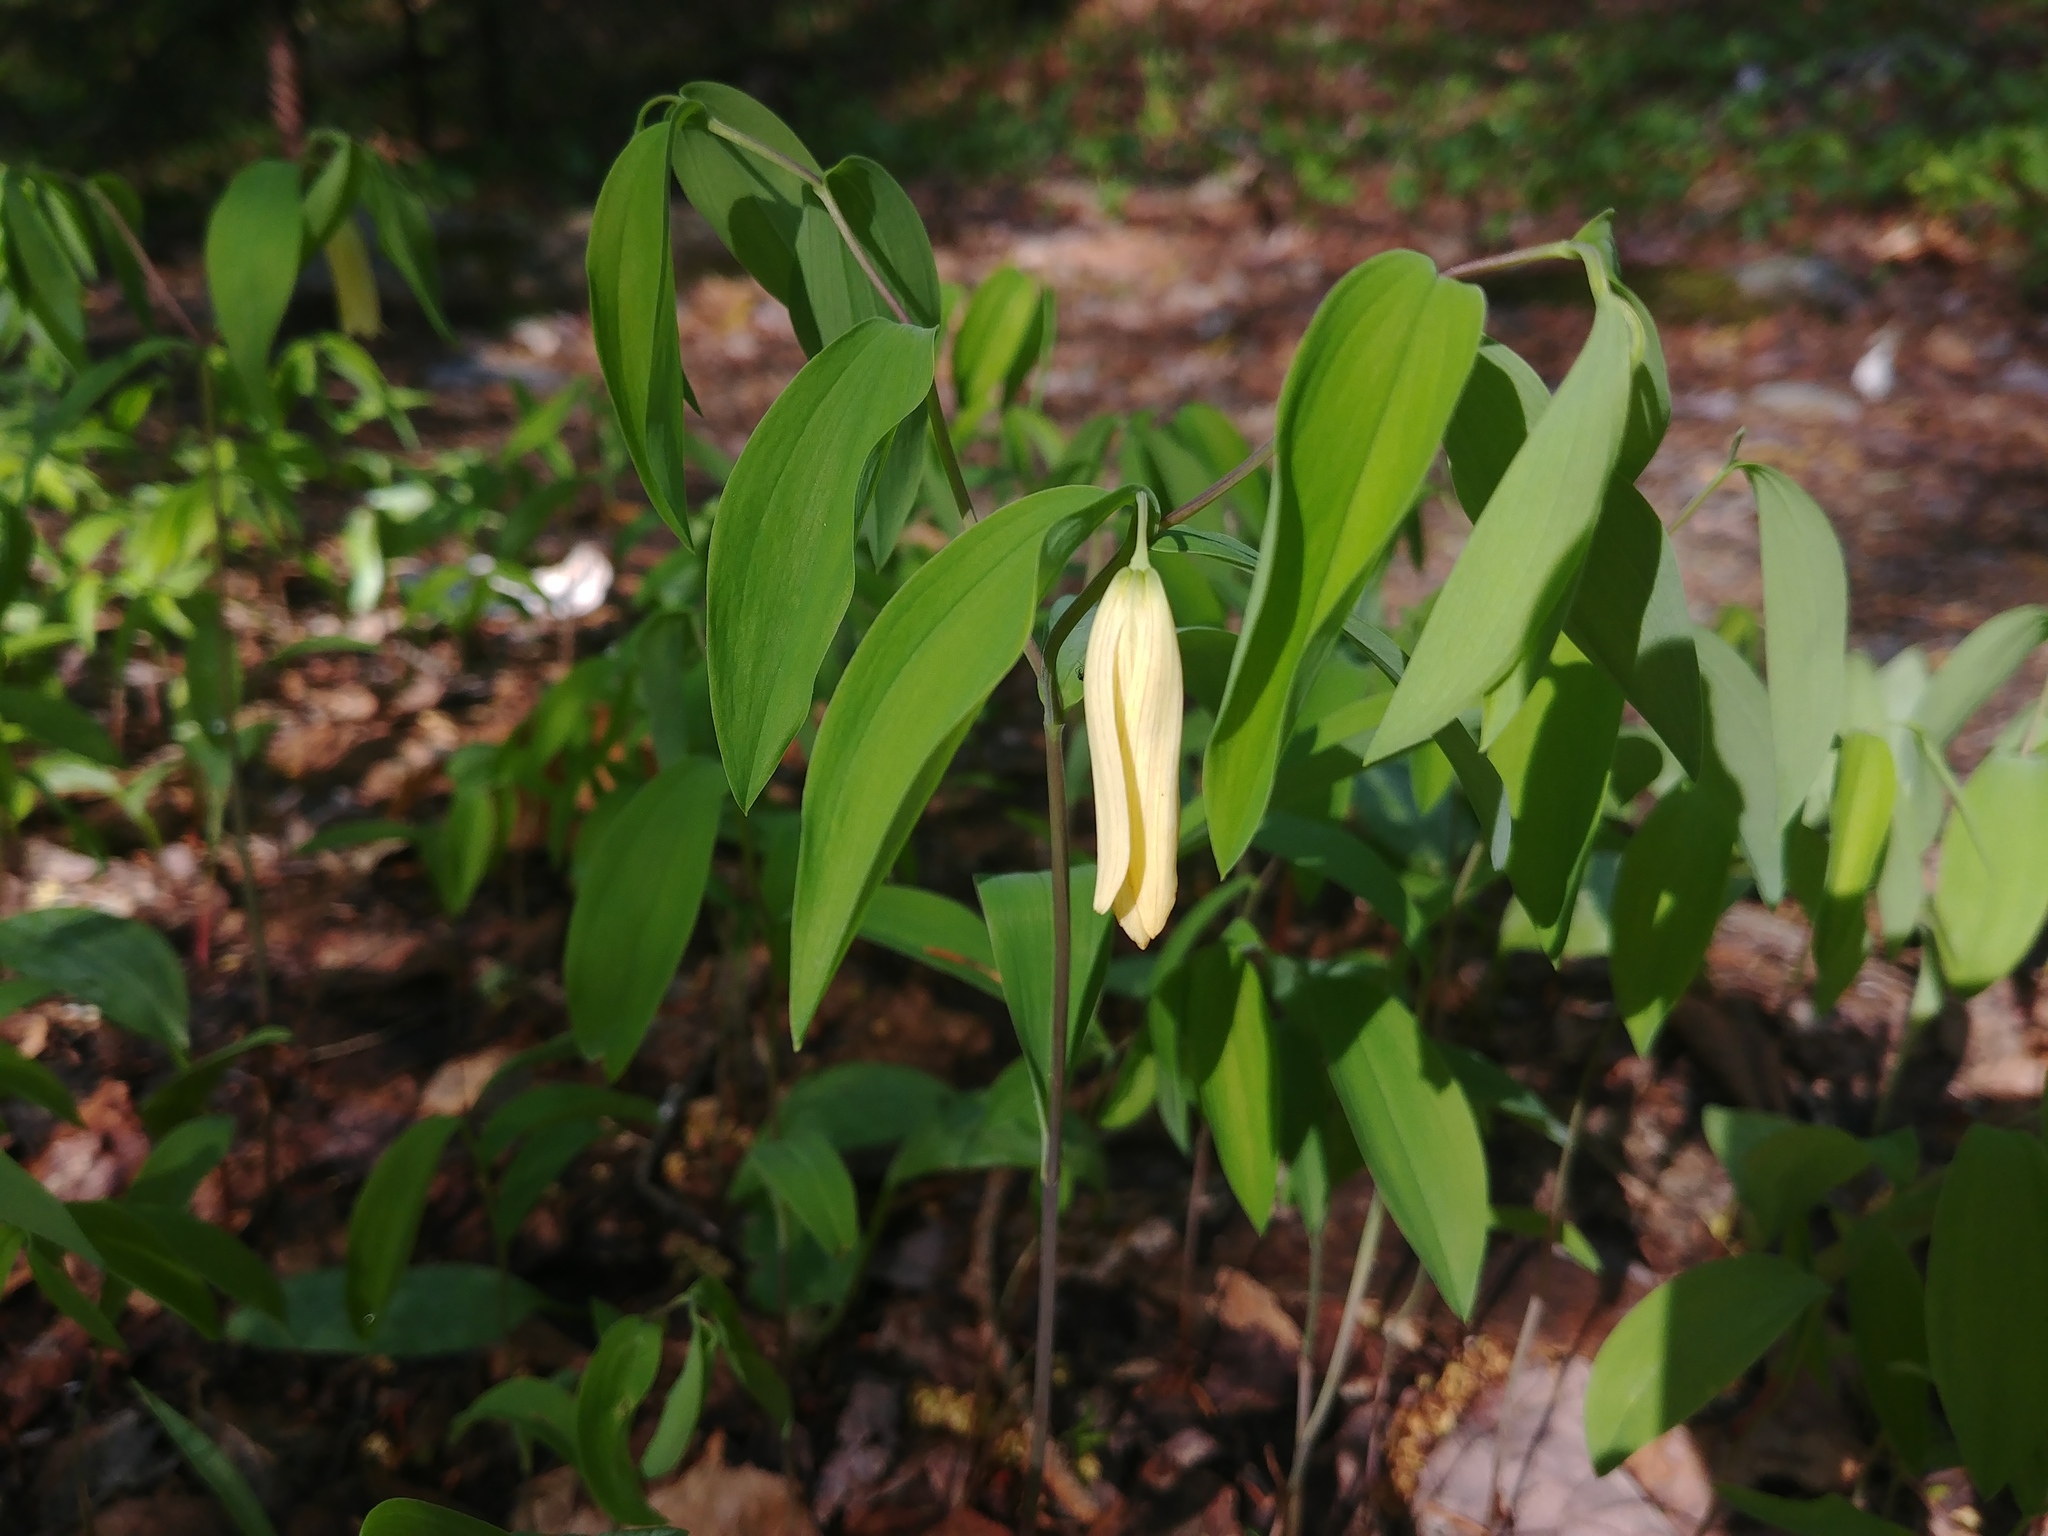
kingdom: Plantae
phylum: Tracheophyta
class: Liliopsida
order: Liliales
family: Colchicaceae
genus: Uvularia
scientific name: Uvularia sessilifolia
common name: Straw-lily
